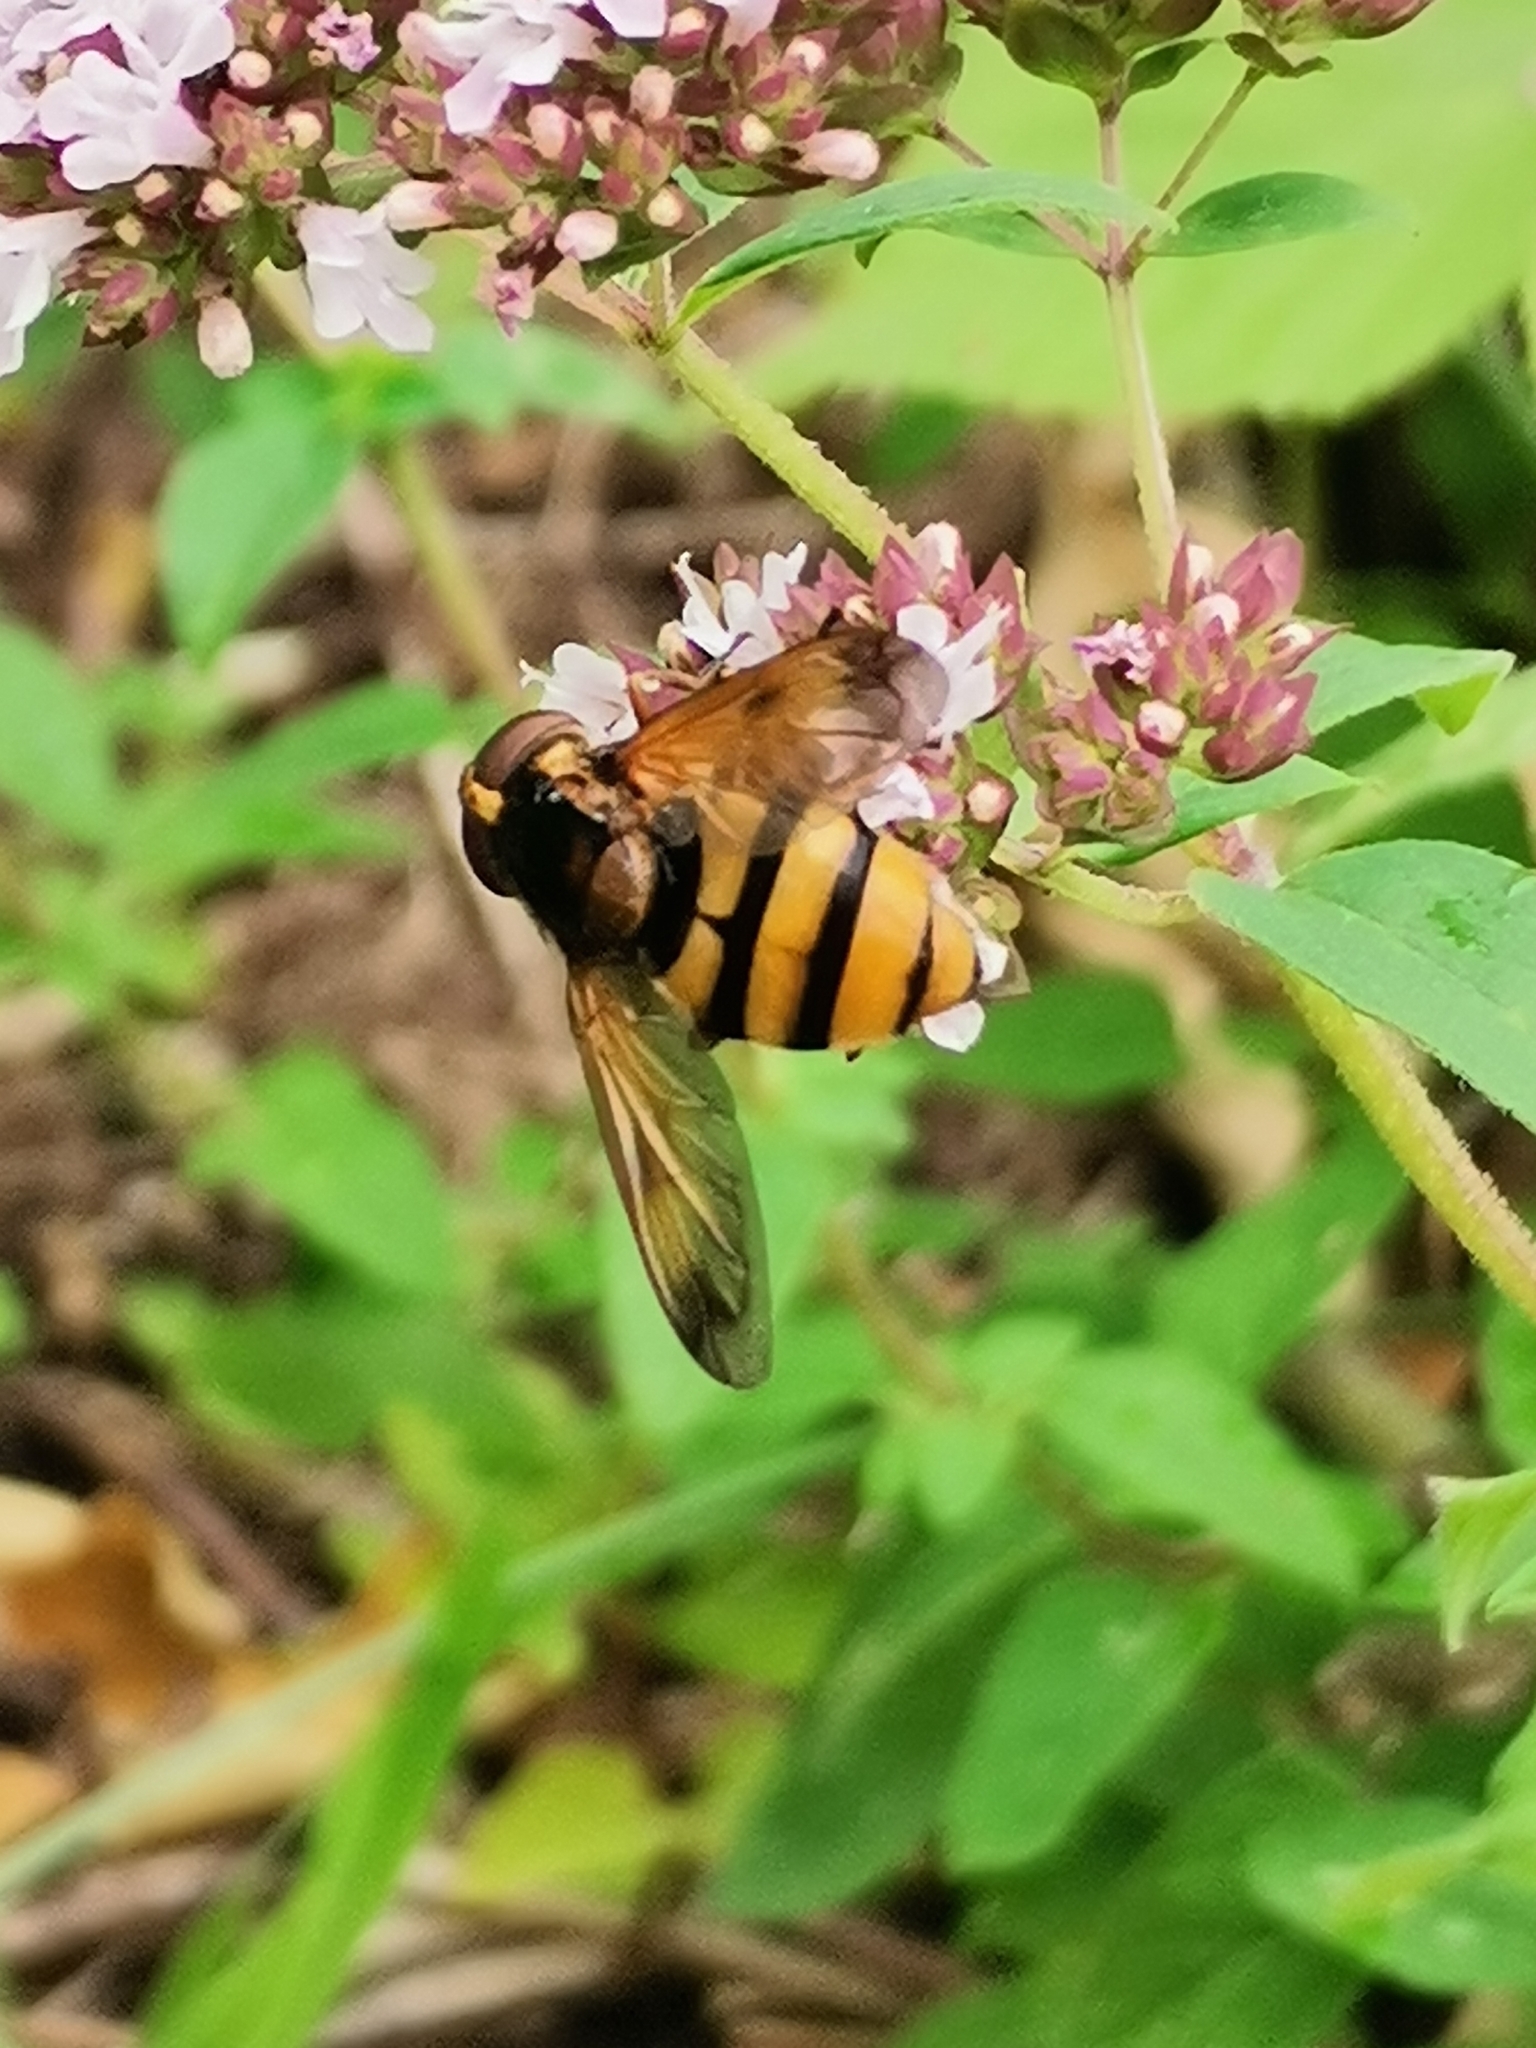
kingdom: Animalia
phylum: Arthropoda
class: Insecta
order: Diptera
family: Syrphidae
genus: Volucella
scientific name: Volucella inanis
